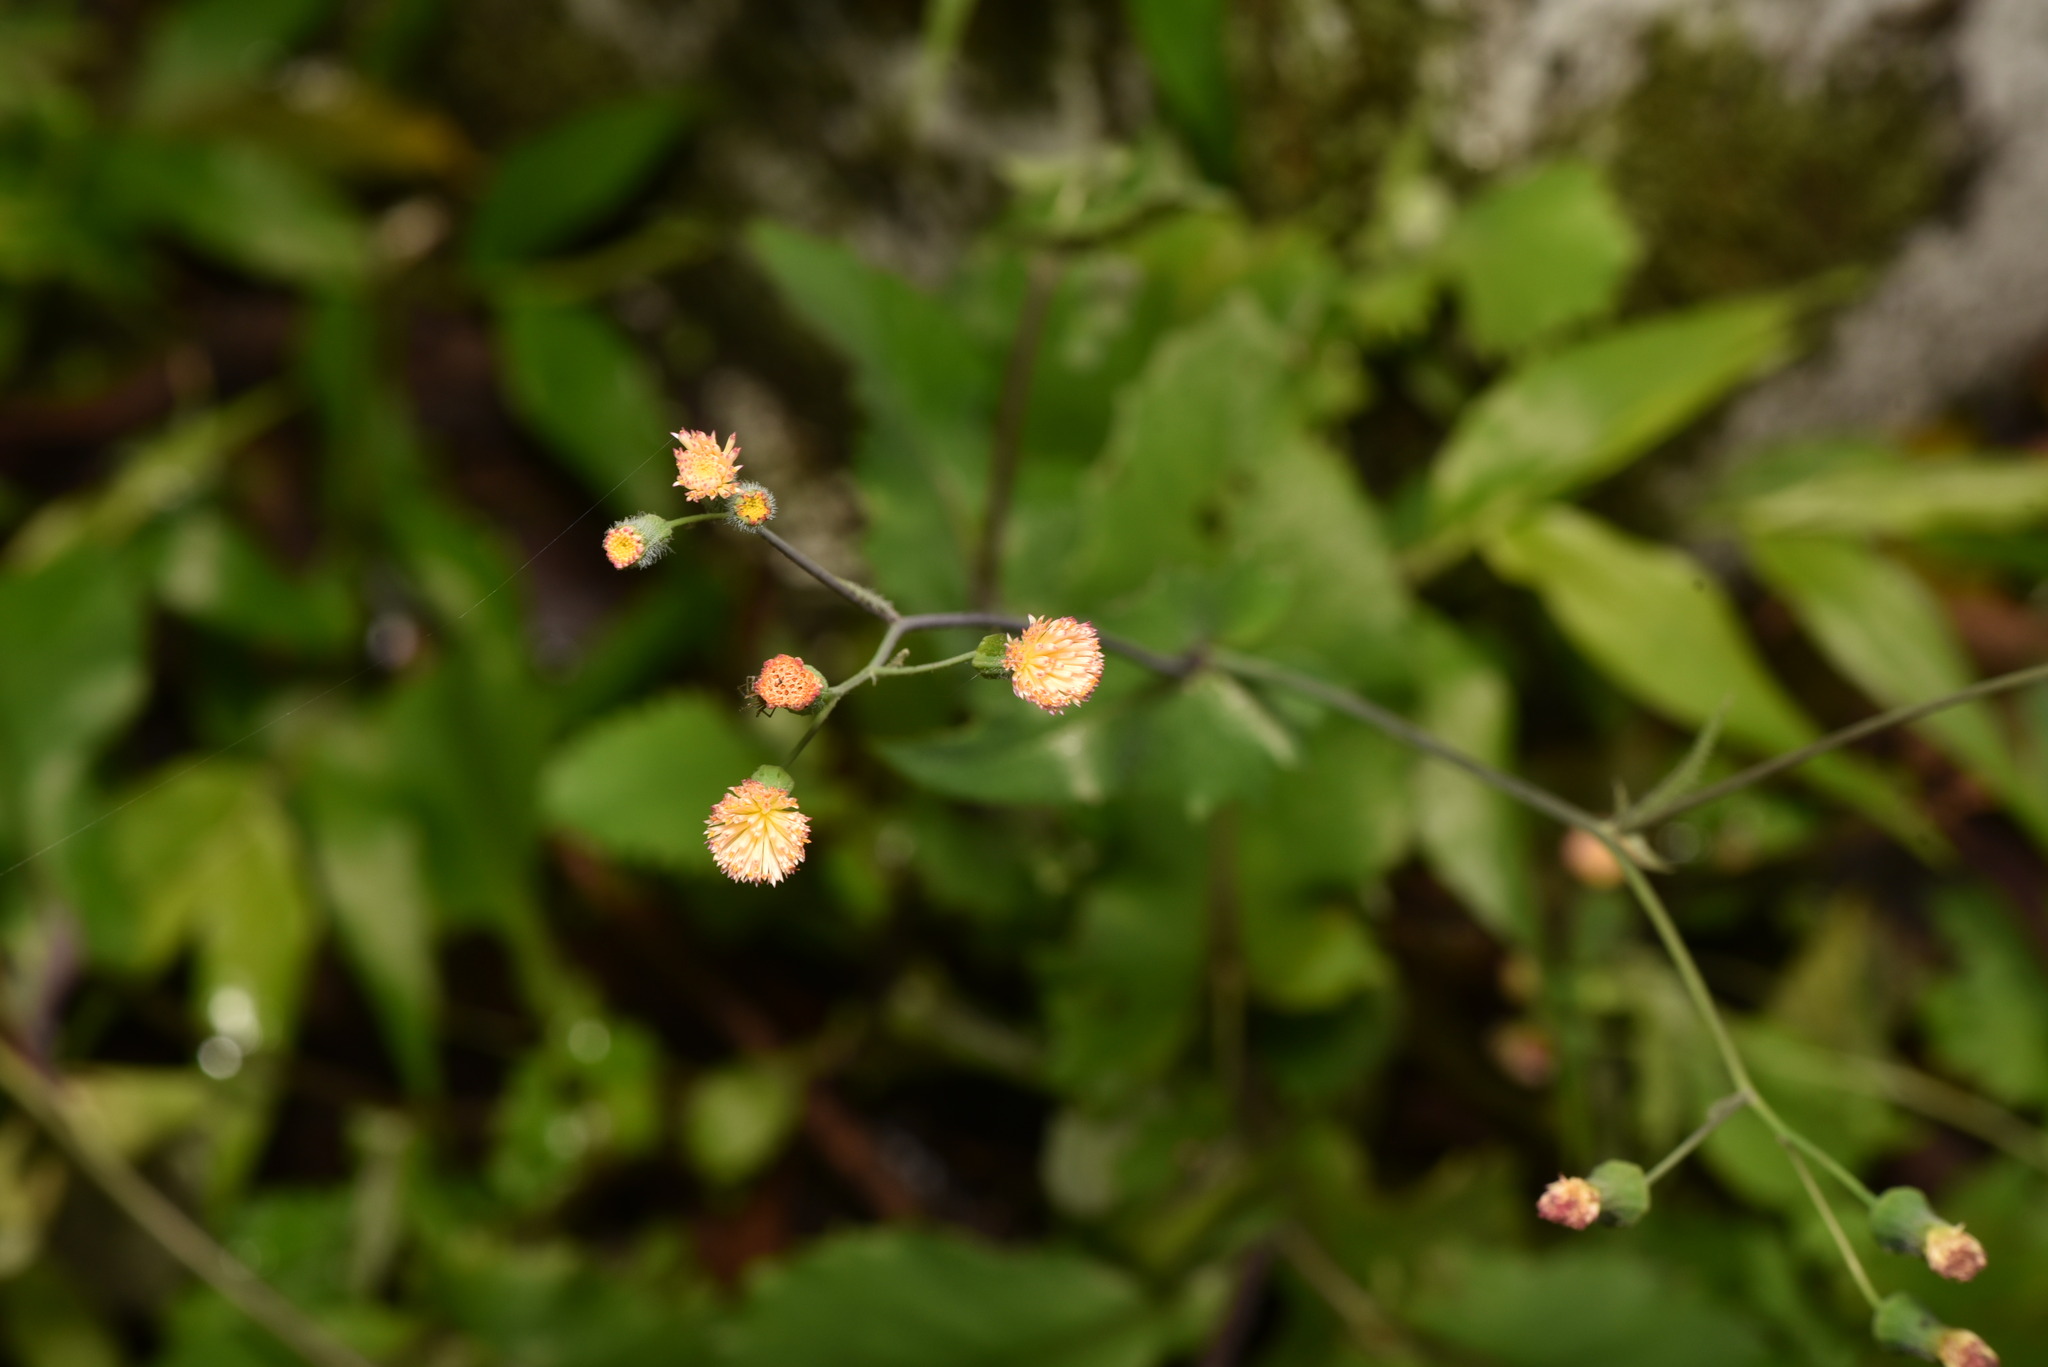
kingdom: Plantae
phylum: Tracheophyta
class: Magnoliopsida
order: Asterales
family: Asteraceae
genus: Emilia
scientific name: Emilia praetermissa
